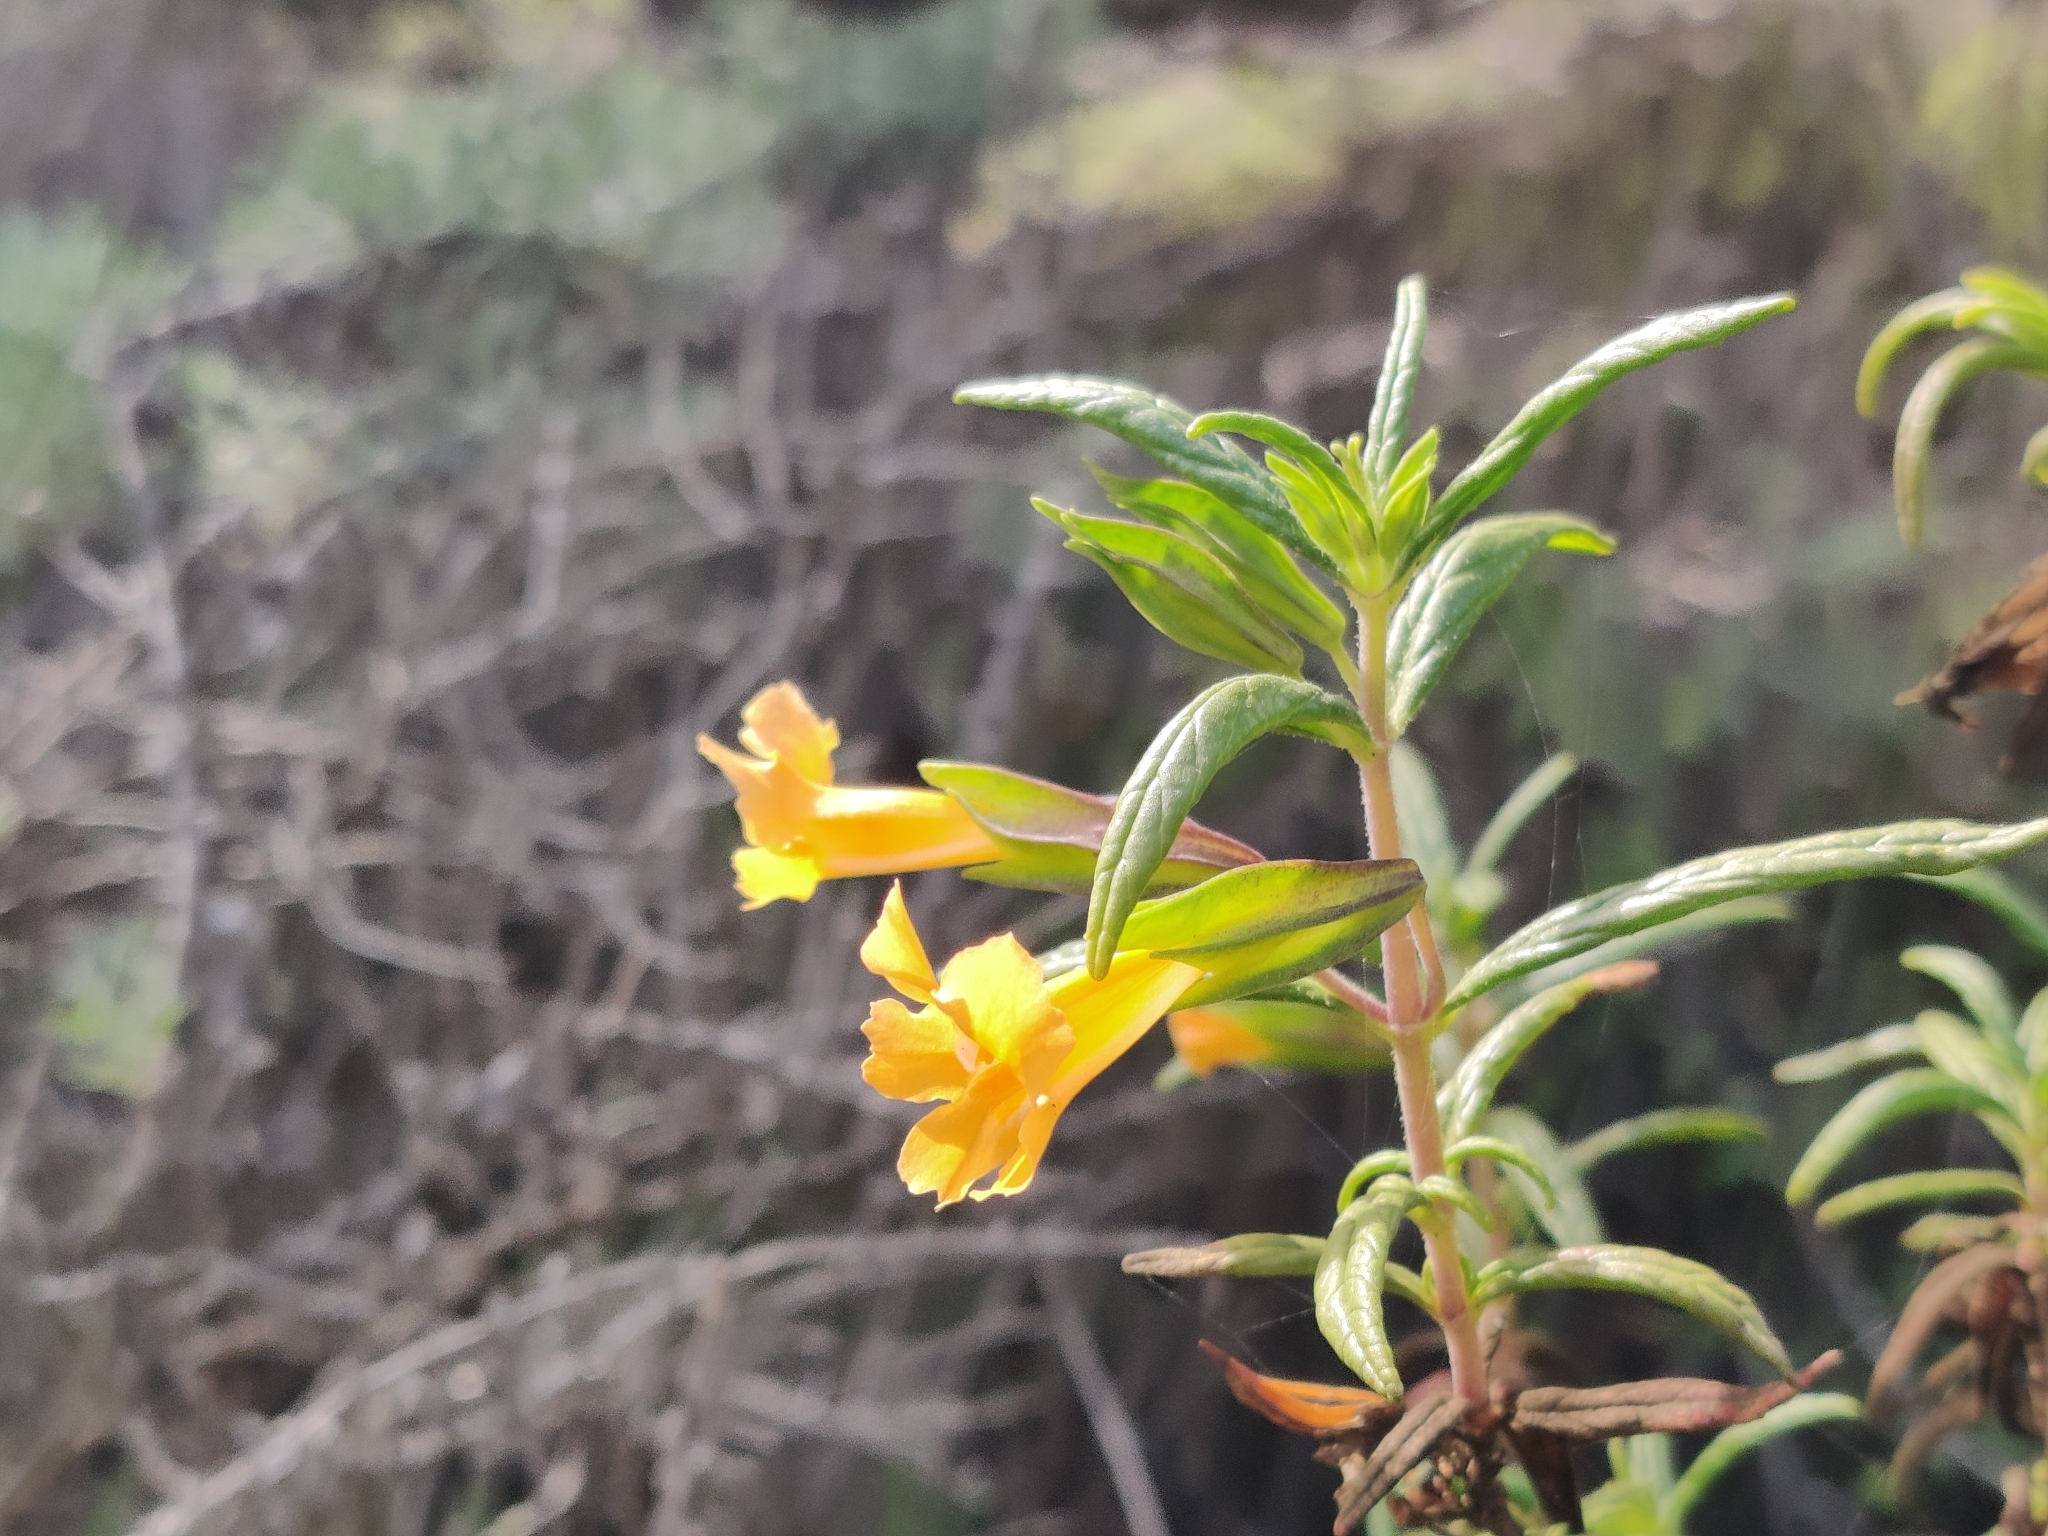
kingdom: Plantae
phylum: Tracheophyta
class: Magnoliopsida
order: Lamiales
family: Phrymaceae
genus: Diplacus
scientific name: Diplacus aurantiacus
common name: Bush monkey-flower
